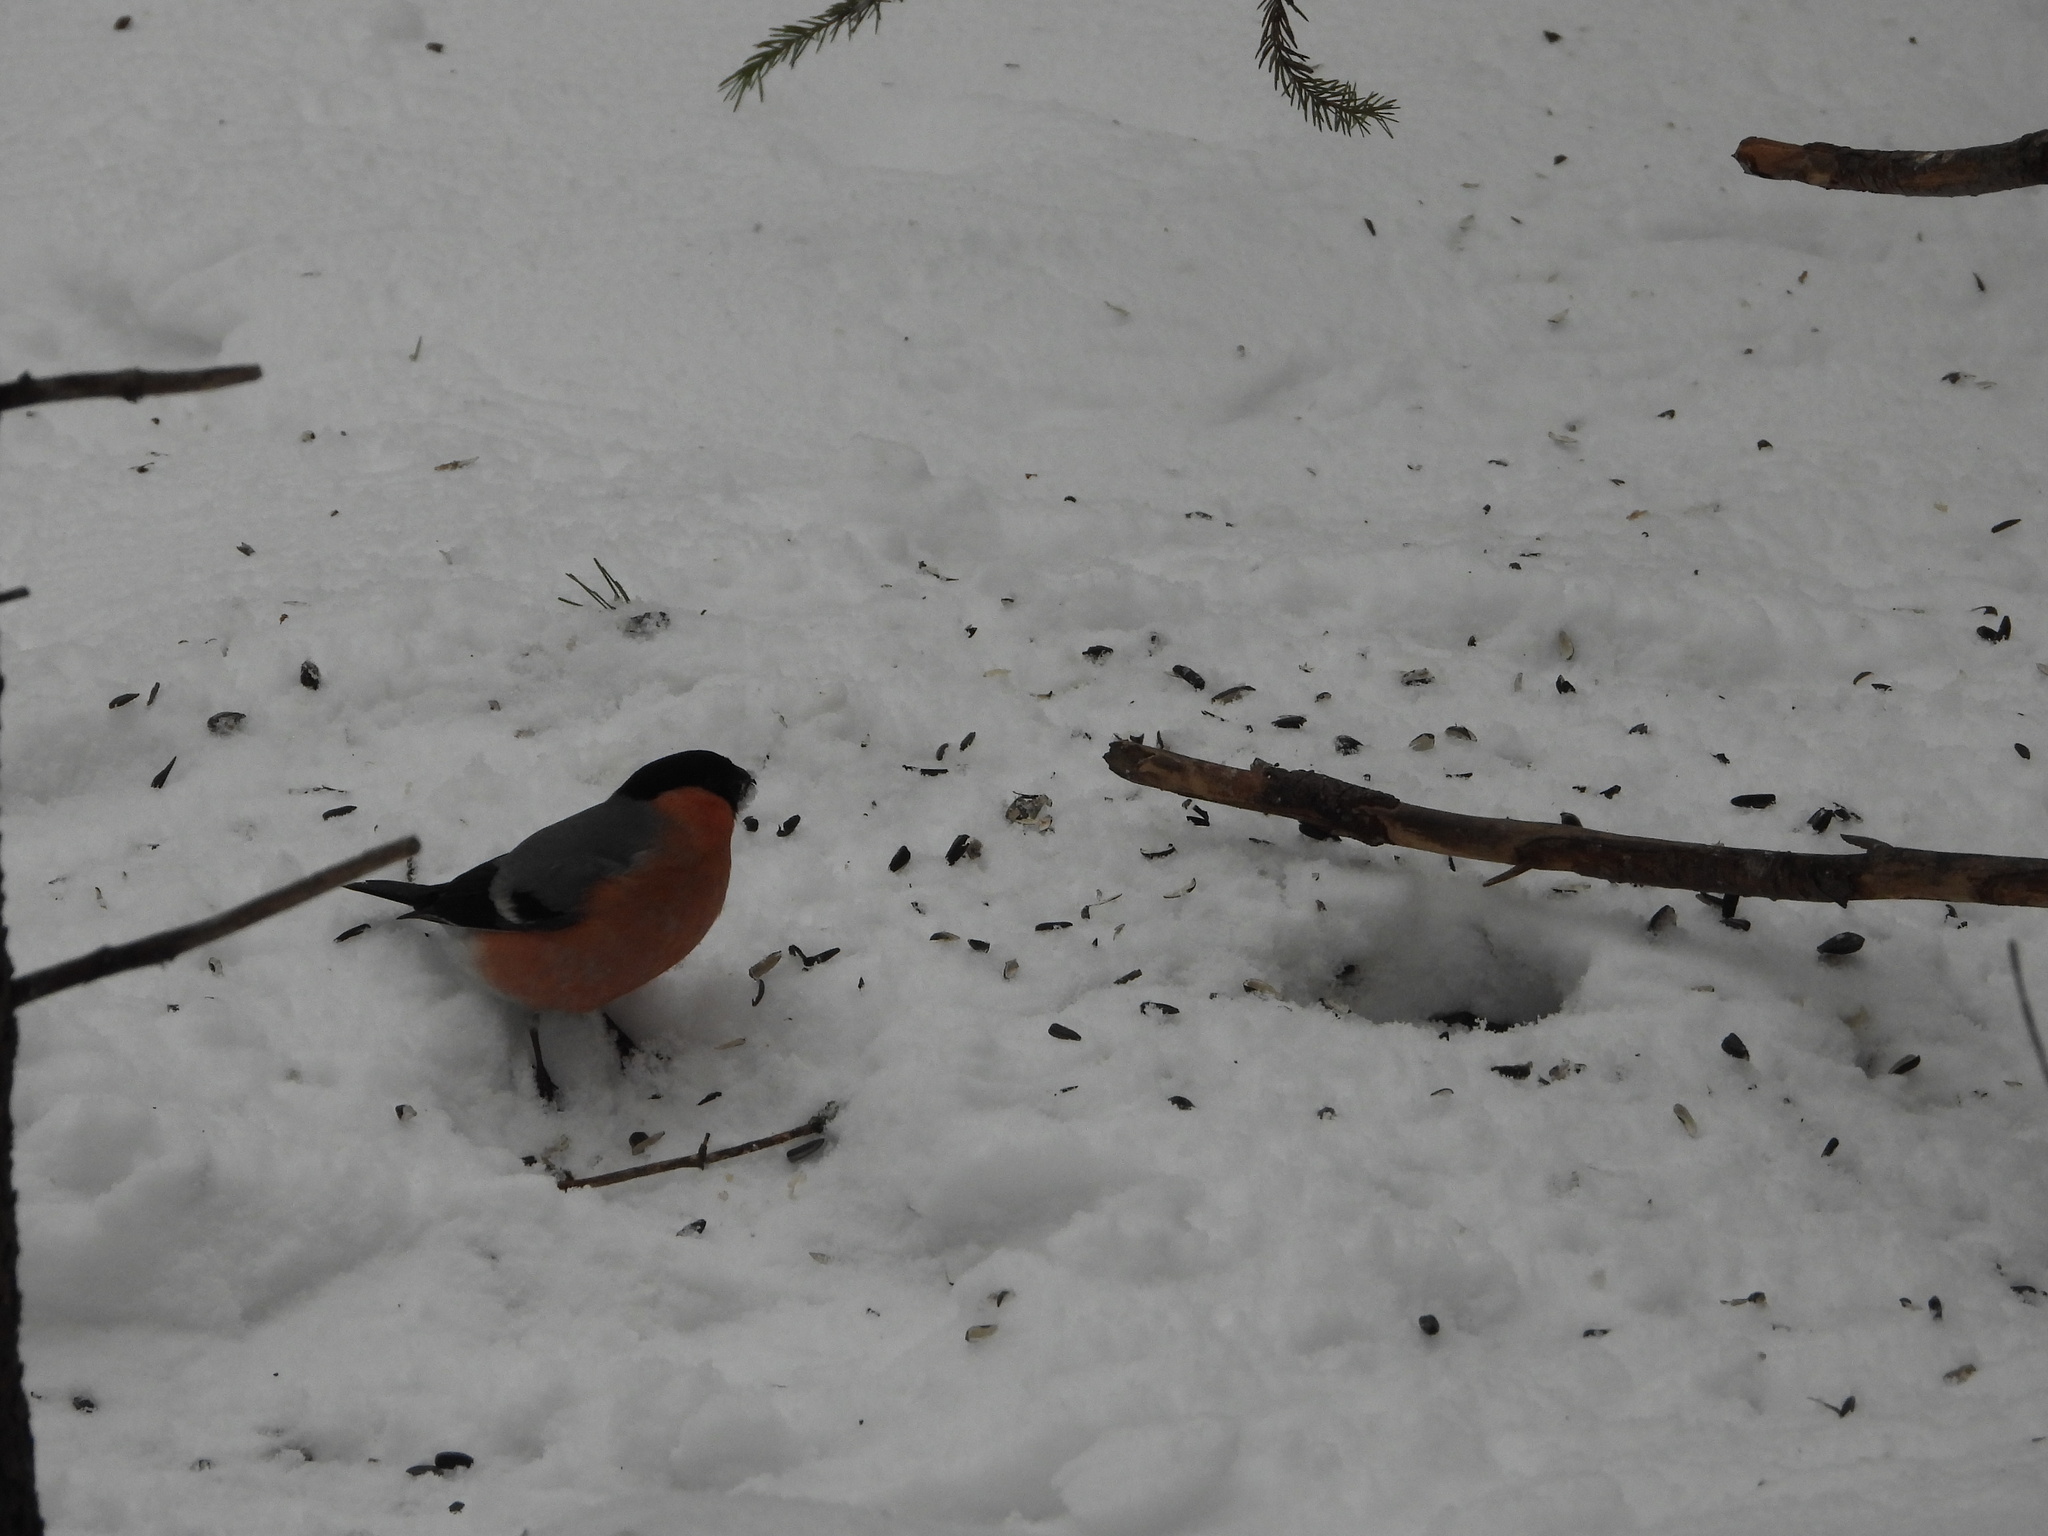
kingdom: Animalia
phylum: Chordata
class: Aves
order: Passeriformes
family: Fringillidae
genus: Pyrrhula
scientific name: Pyrrhula pyrrhula
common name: Eurasian bullfinch
